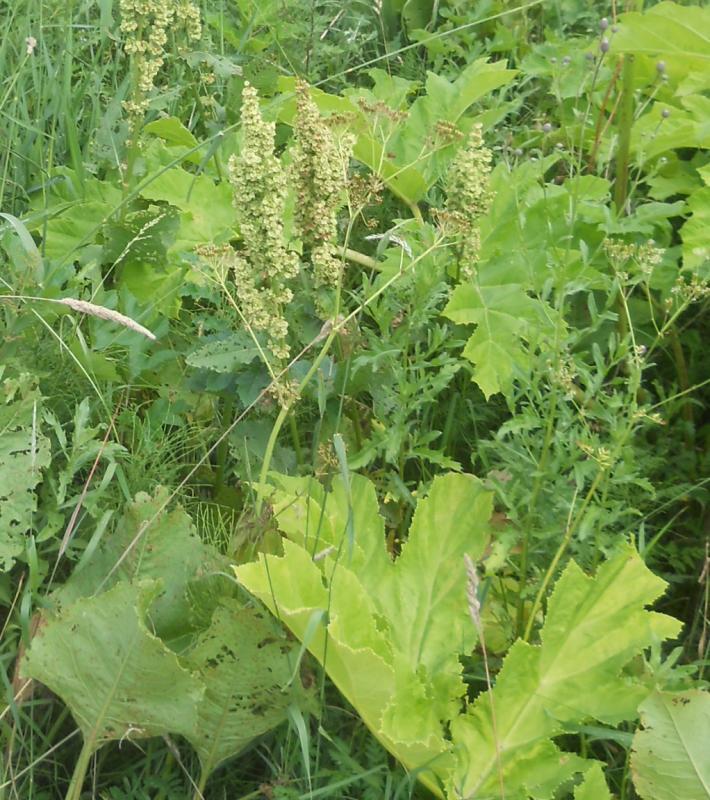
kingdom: Plantae
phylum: Tracheophyta
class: Magnoliopsida
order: Apiales
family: Apiaceae
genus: Heracleum
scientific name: Heracleum sosnowskyi
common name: Sosnowsky's hogweed
